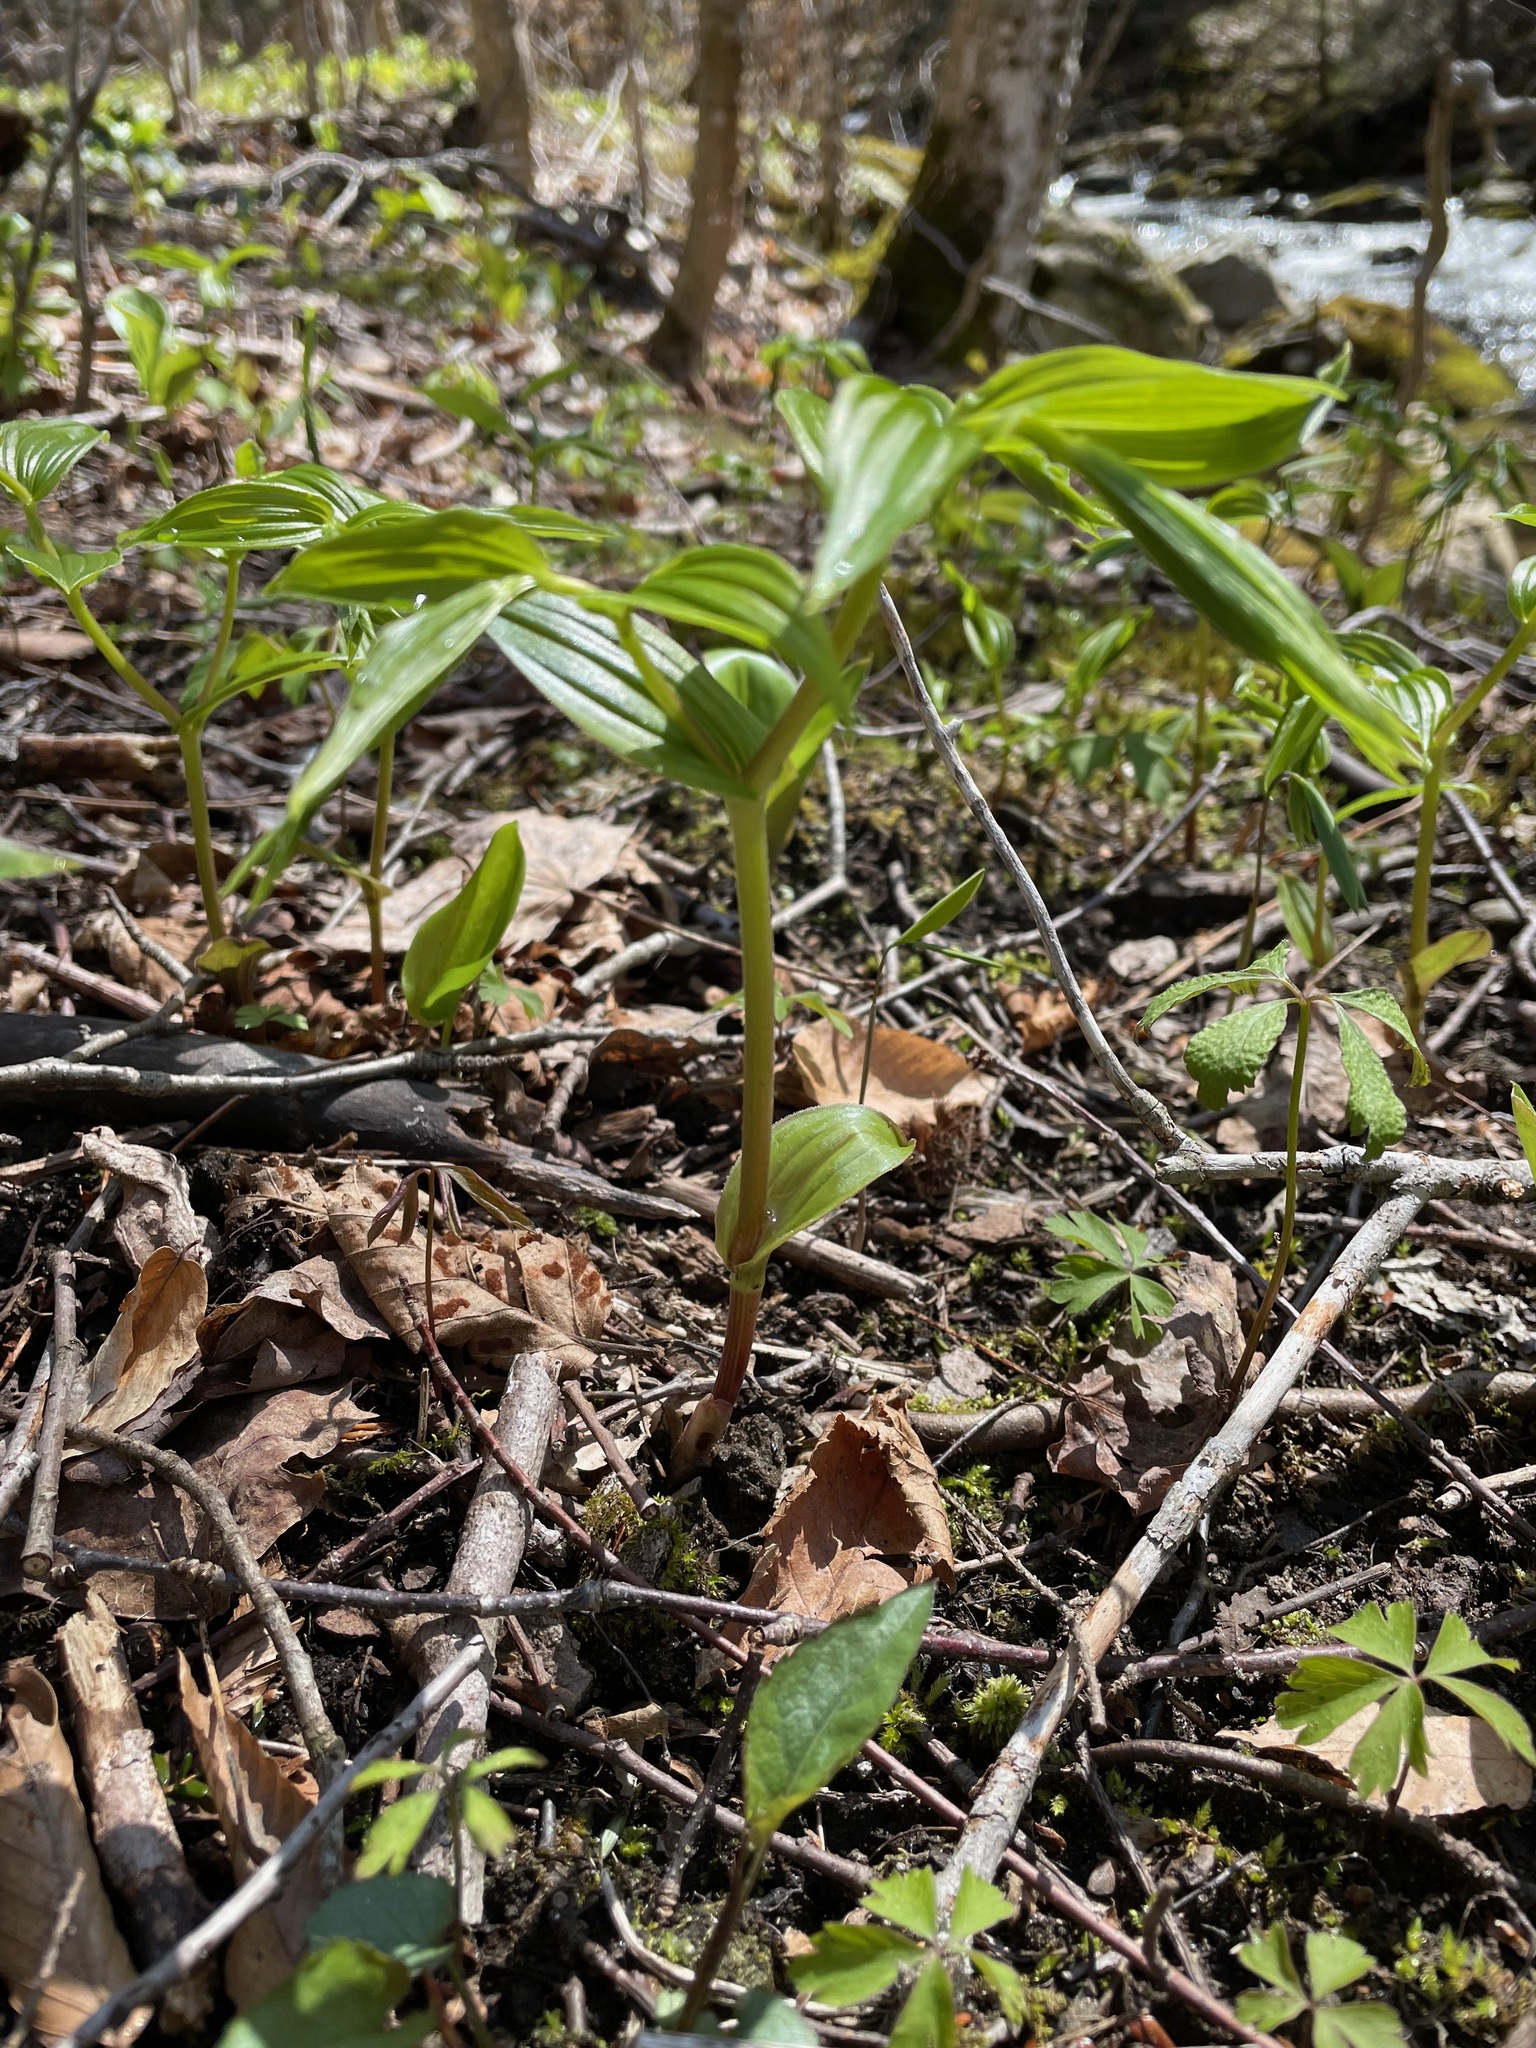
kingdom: Plantae
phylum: Tracheophyta
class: Liliopsida
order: Liliales
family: Liliaceae
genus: Streptopus
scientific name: Streptopus lanceolatus
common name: Rose mandarin
